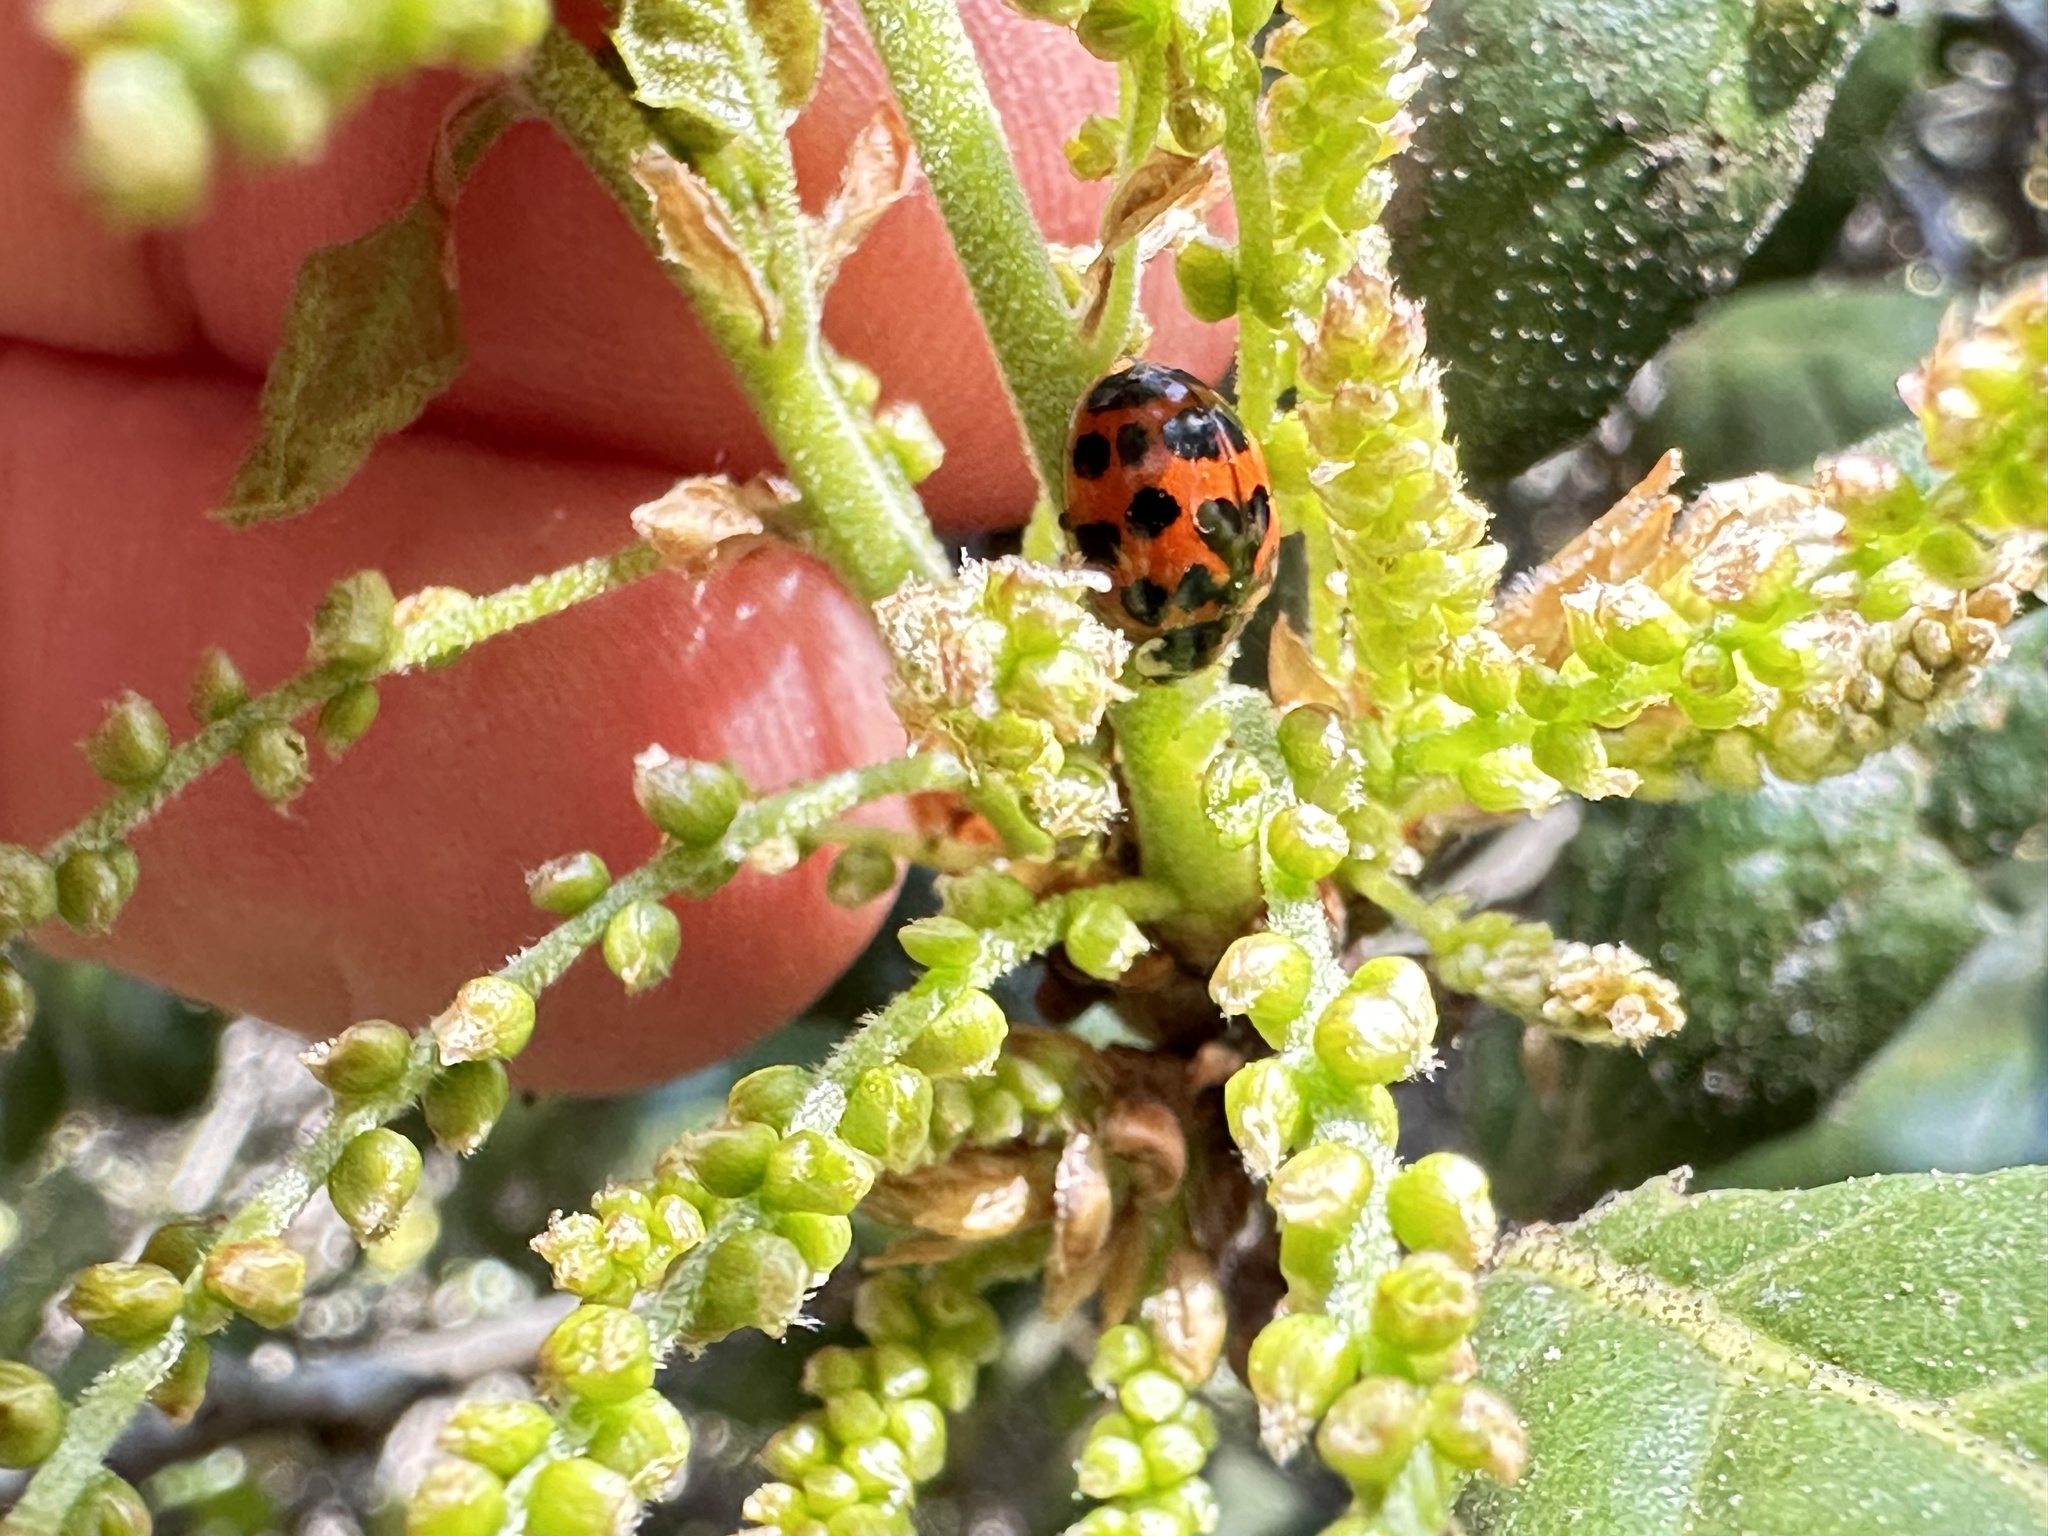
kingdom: Animalia
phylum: Arthropoda
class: Insecta
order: Coleoptera
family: Coccinellidae
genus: Harmonia
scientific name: Harmonia axyridis
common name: Harlequin ladybird
